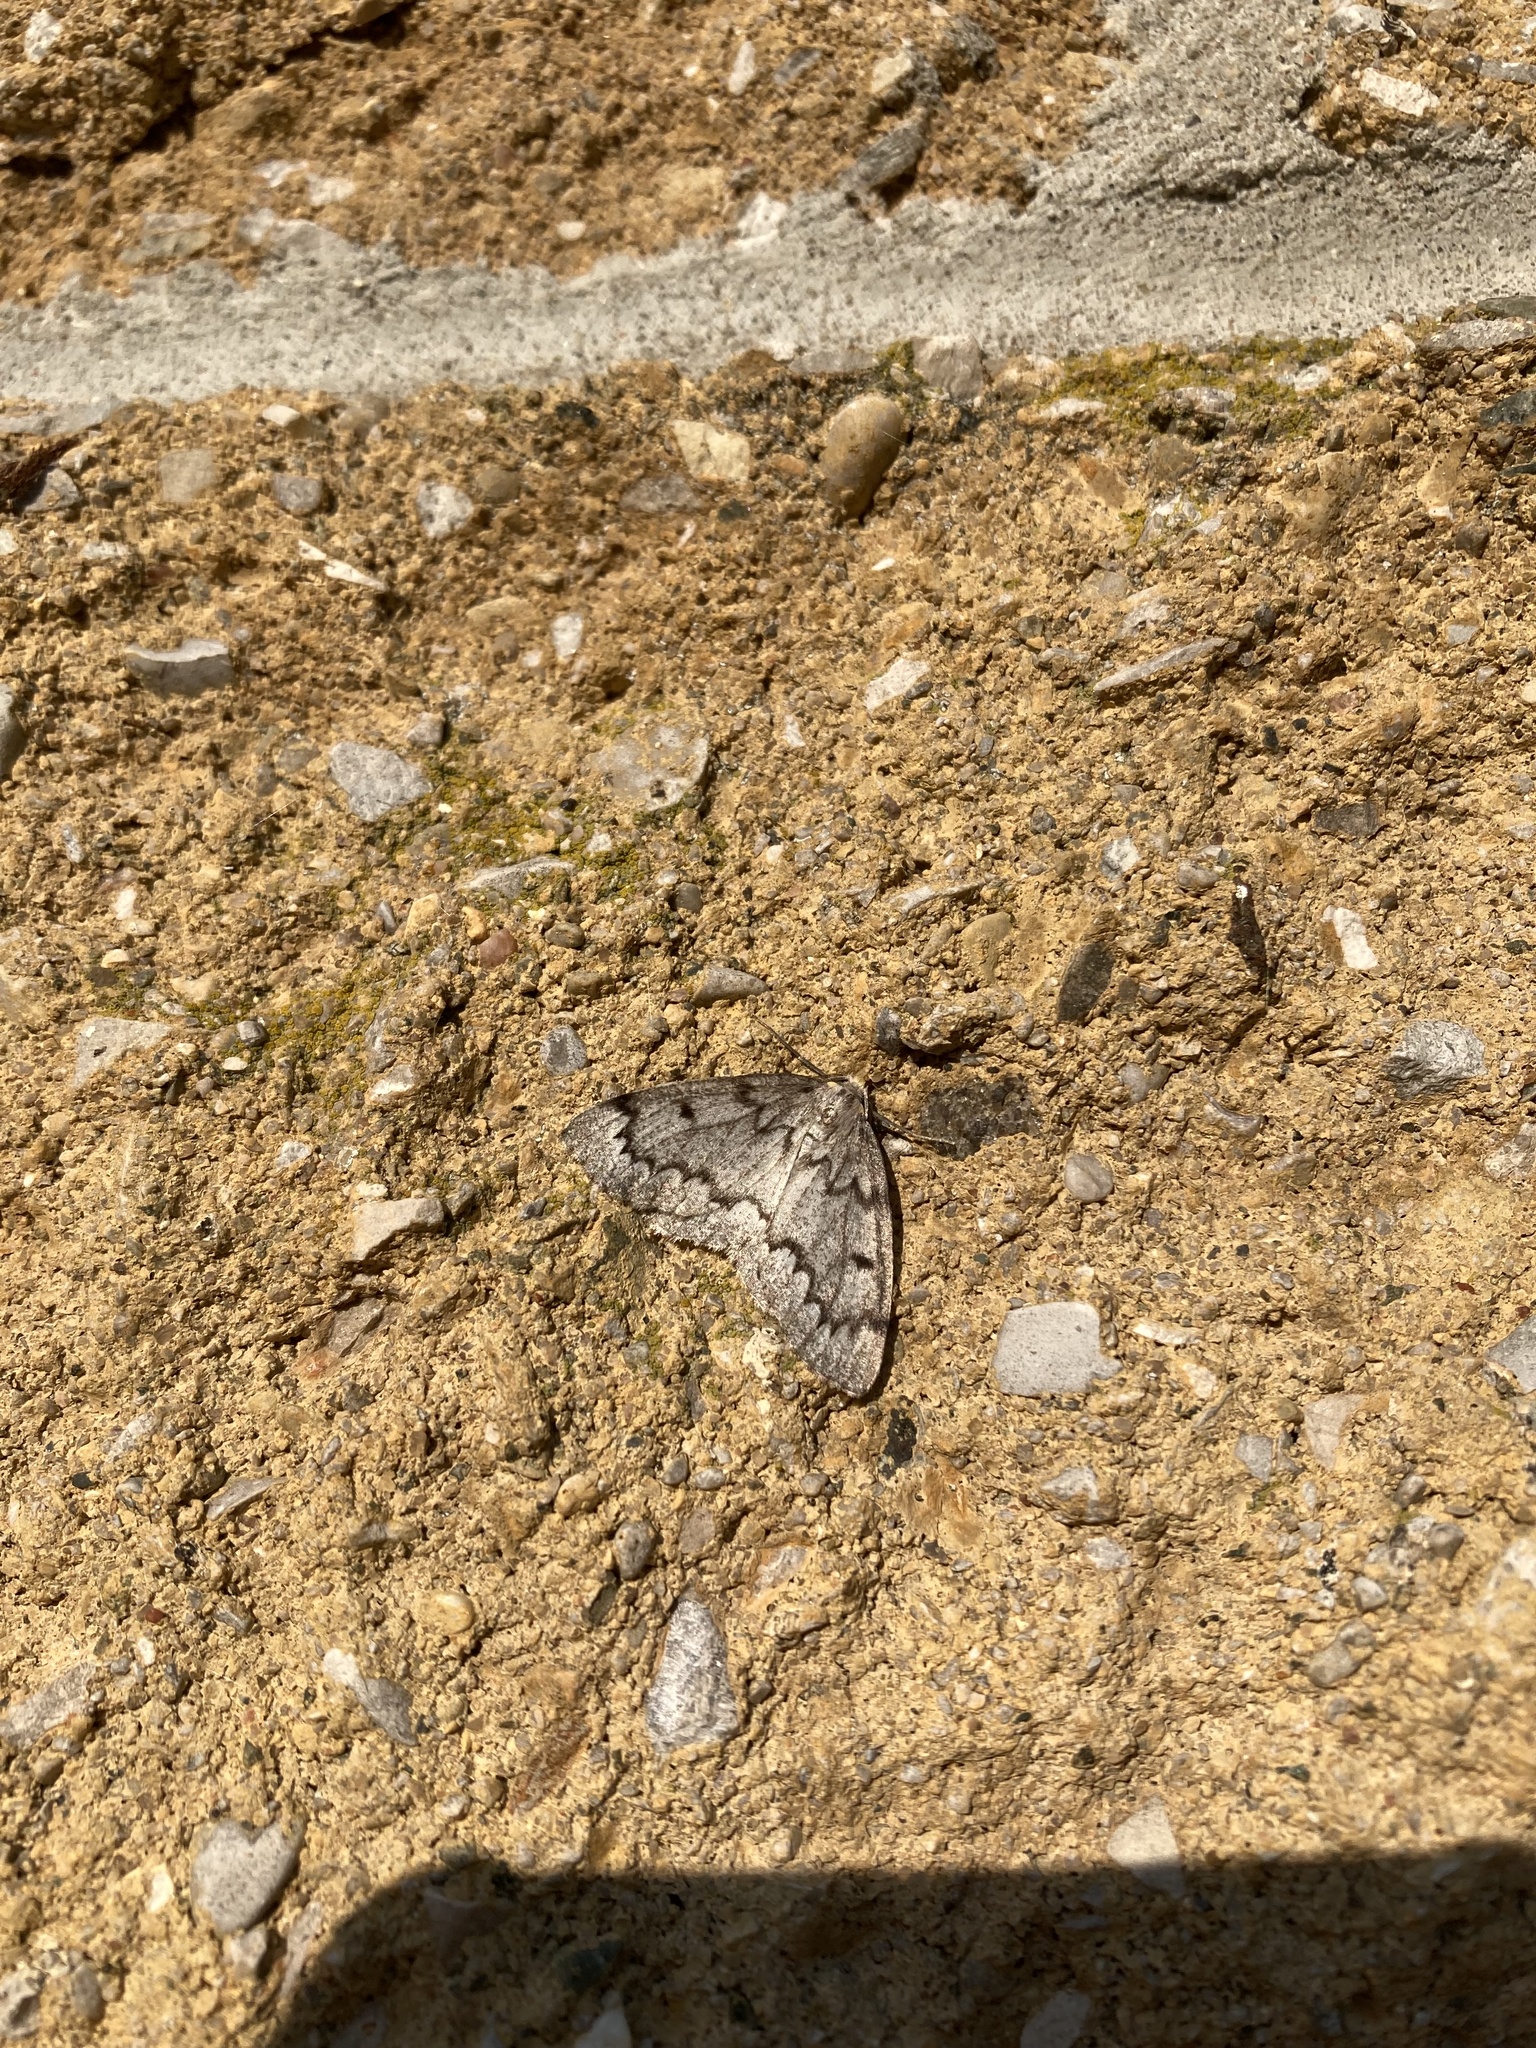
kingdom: Animalia
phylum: Arthropoda
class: Insecta
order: Lepidoptera
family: Geometridae
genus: Nepytia
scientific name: Nepytia canosaria
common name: False hemlock looper
